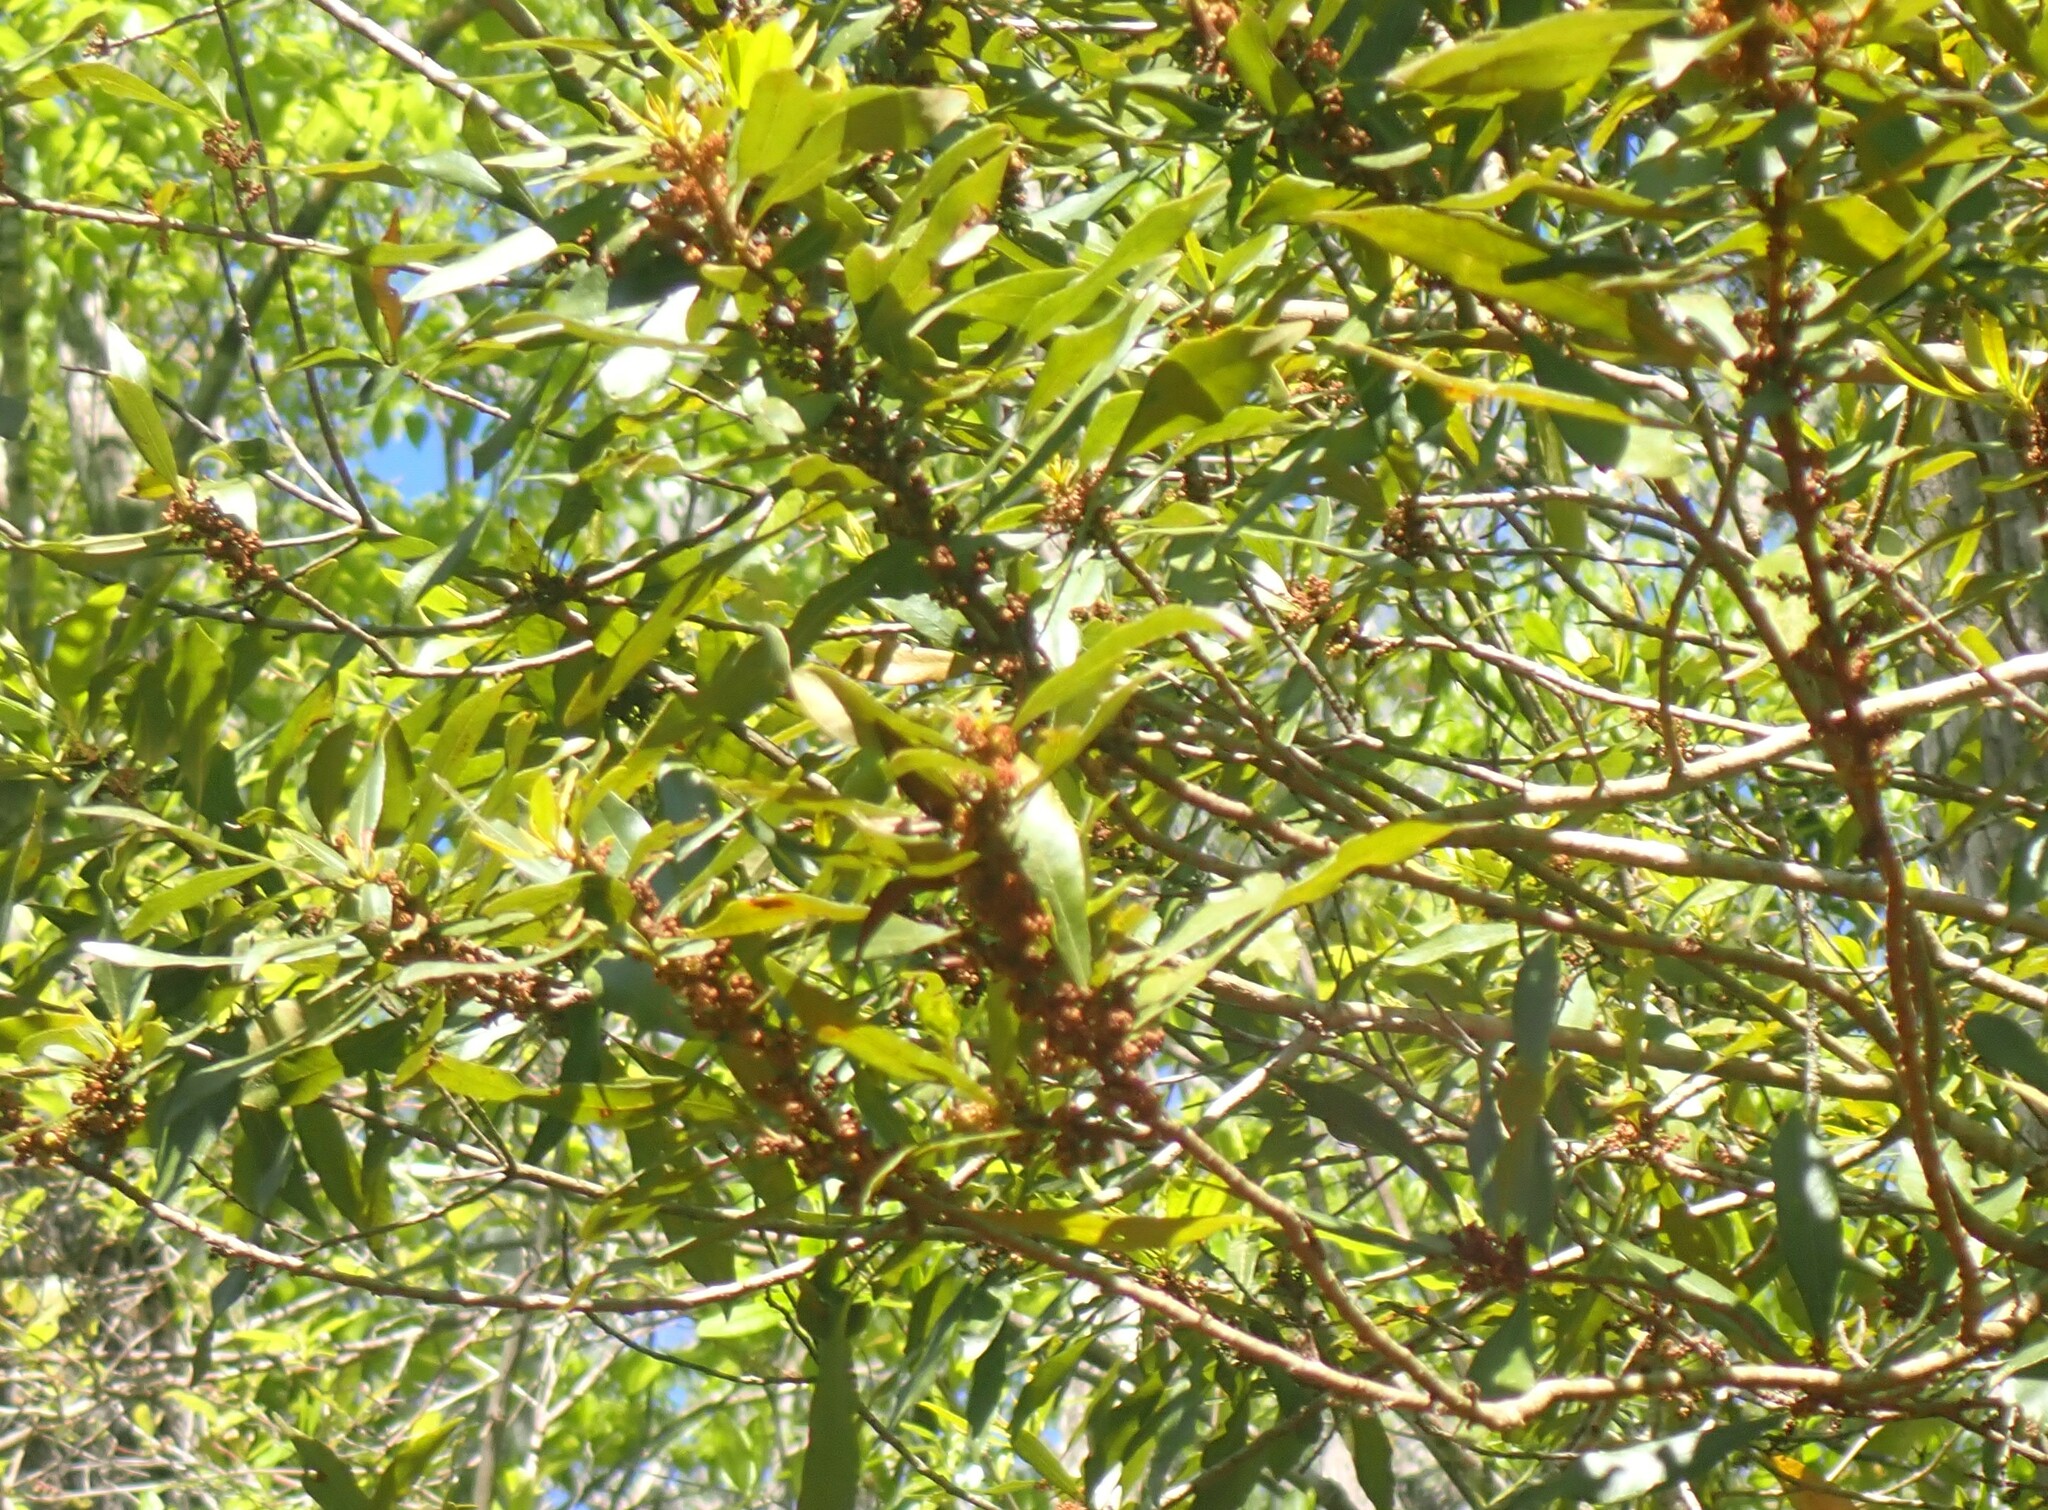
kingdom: Plantae
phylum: Tracheophyta
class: Magnoliopsida
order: Fagales
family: Myricaceae
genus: Morella
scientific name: Morella cerifera
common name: Wax myrtle
